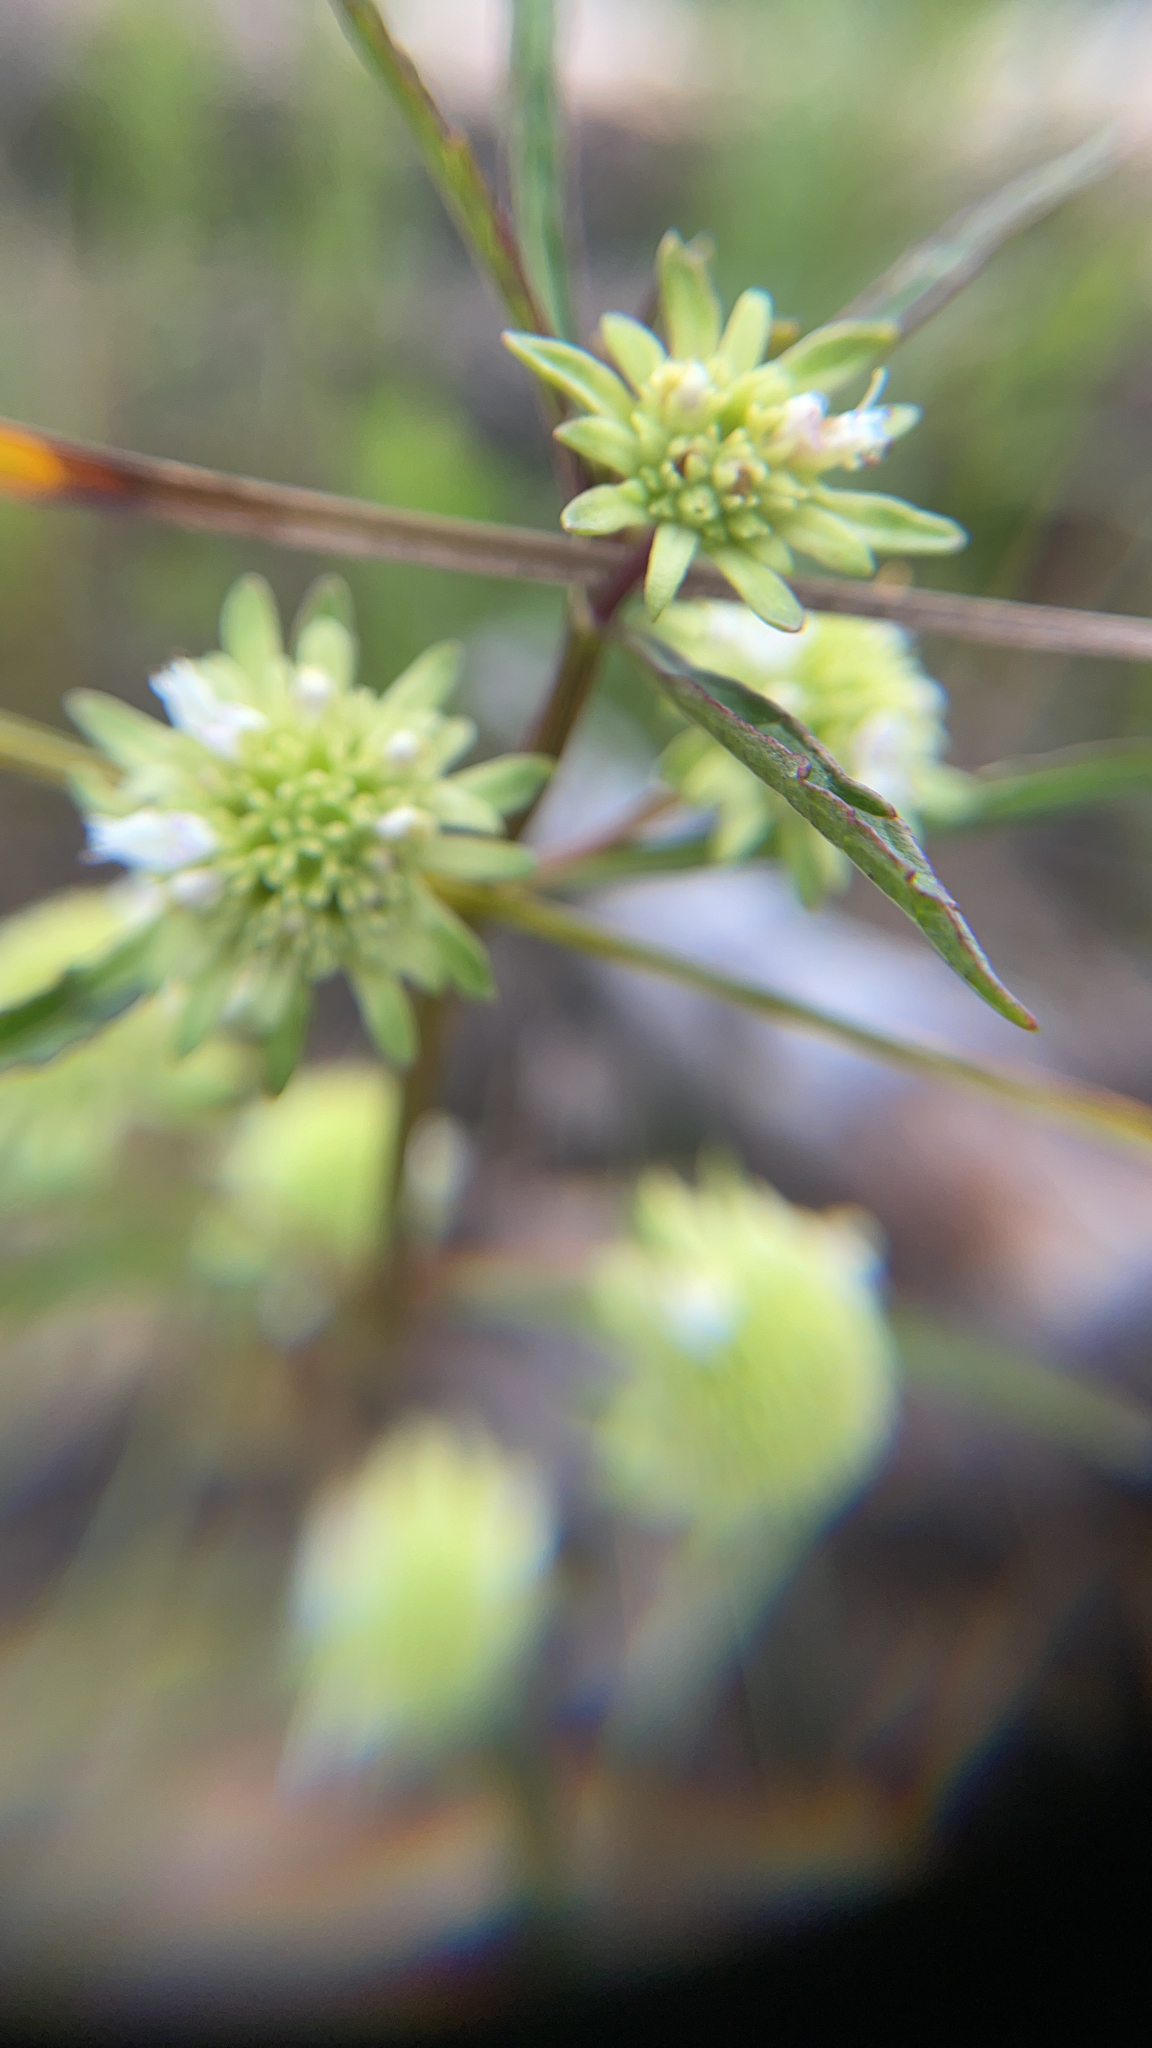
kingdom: Plantae
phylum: Tracheophyta
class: Magnoliopsida
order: Lamiales
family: Lamiaceae
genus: Hyptis
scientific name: Hyptis alata
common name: Cluster bush-mint
